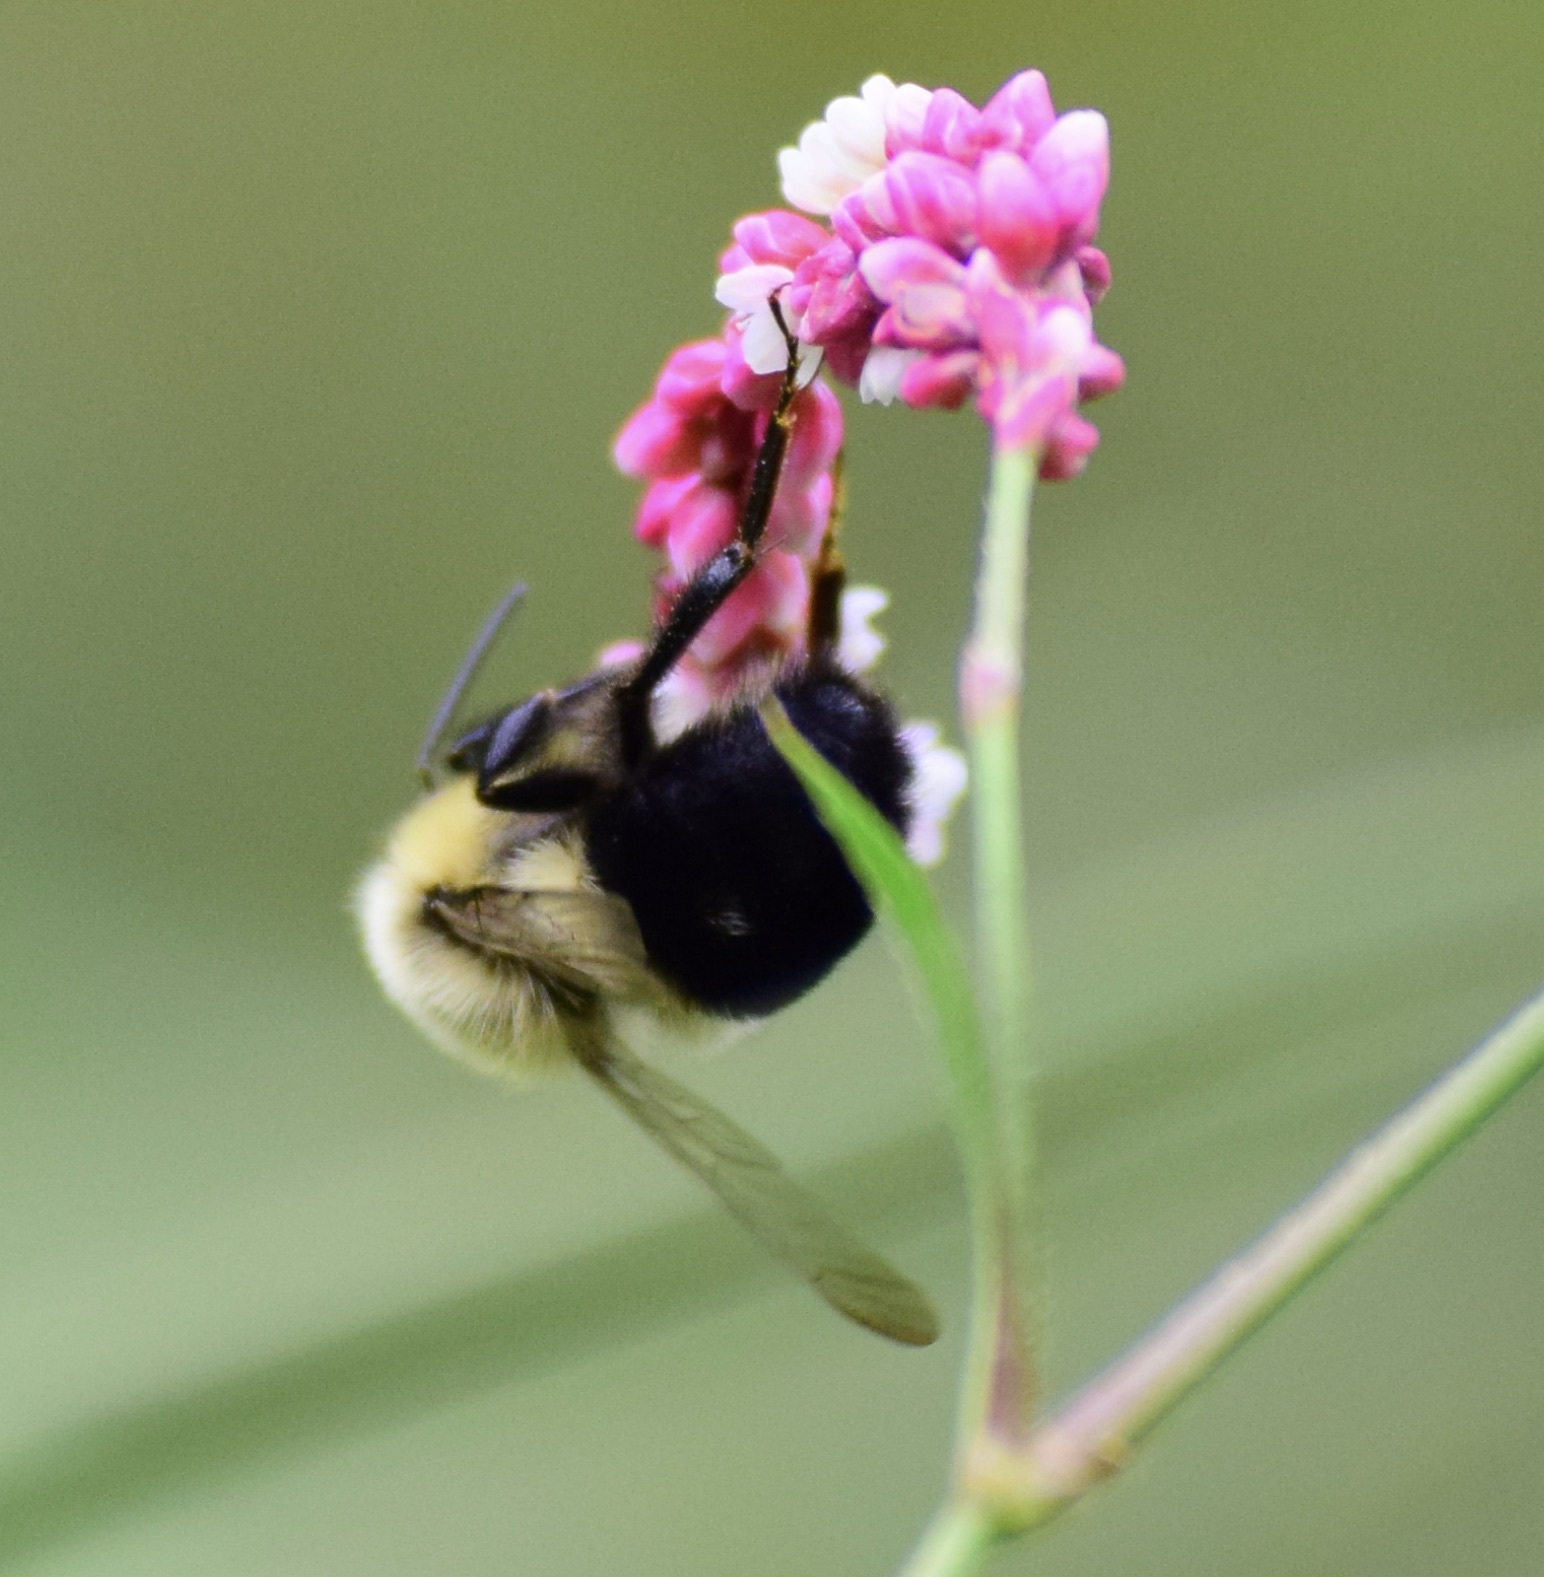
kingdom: Animalia
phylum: Arthropoda
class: Insecta
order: Hymenoptera
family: Apidae
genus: Bombus
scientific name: Bombus impatiens
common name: Common eastern bumble bee
